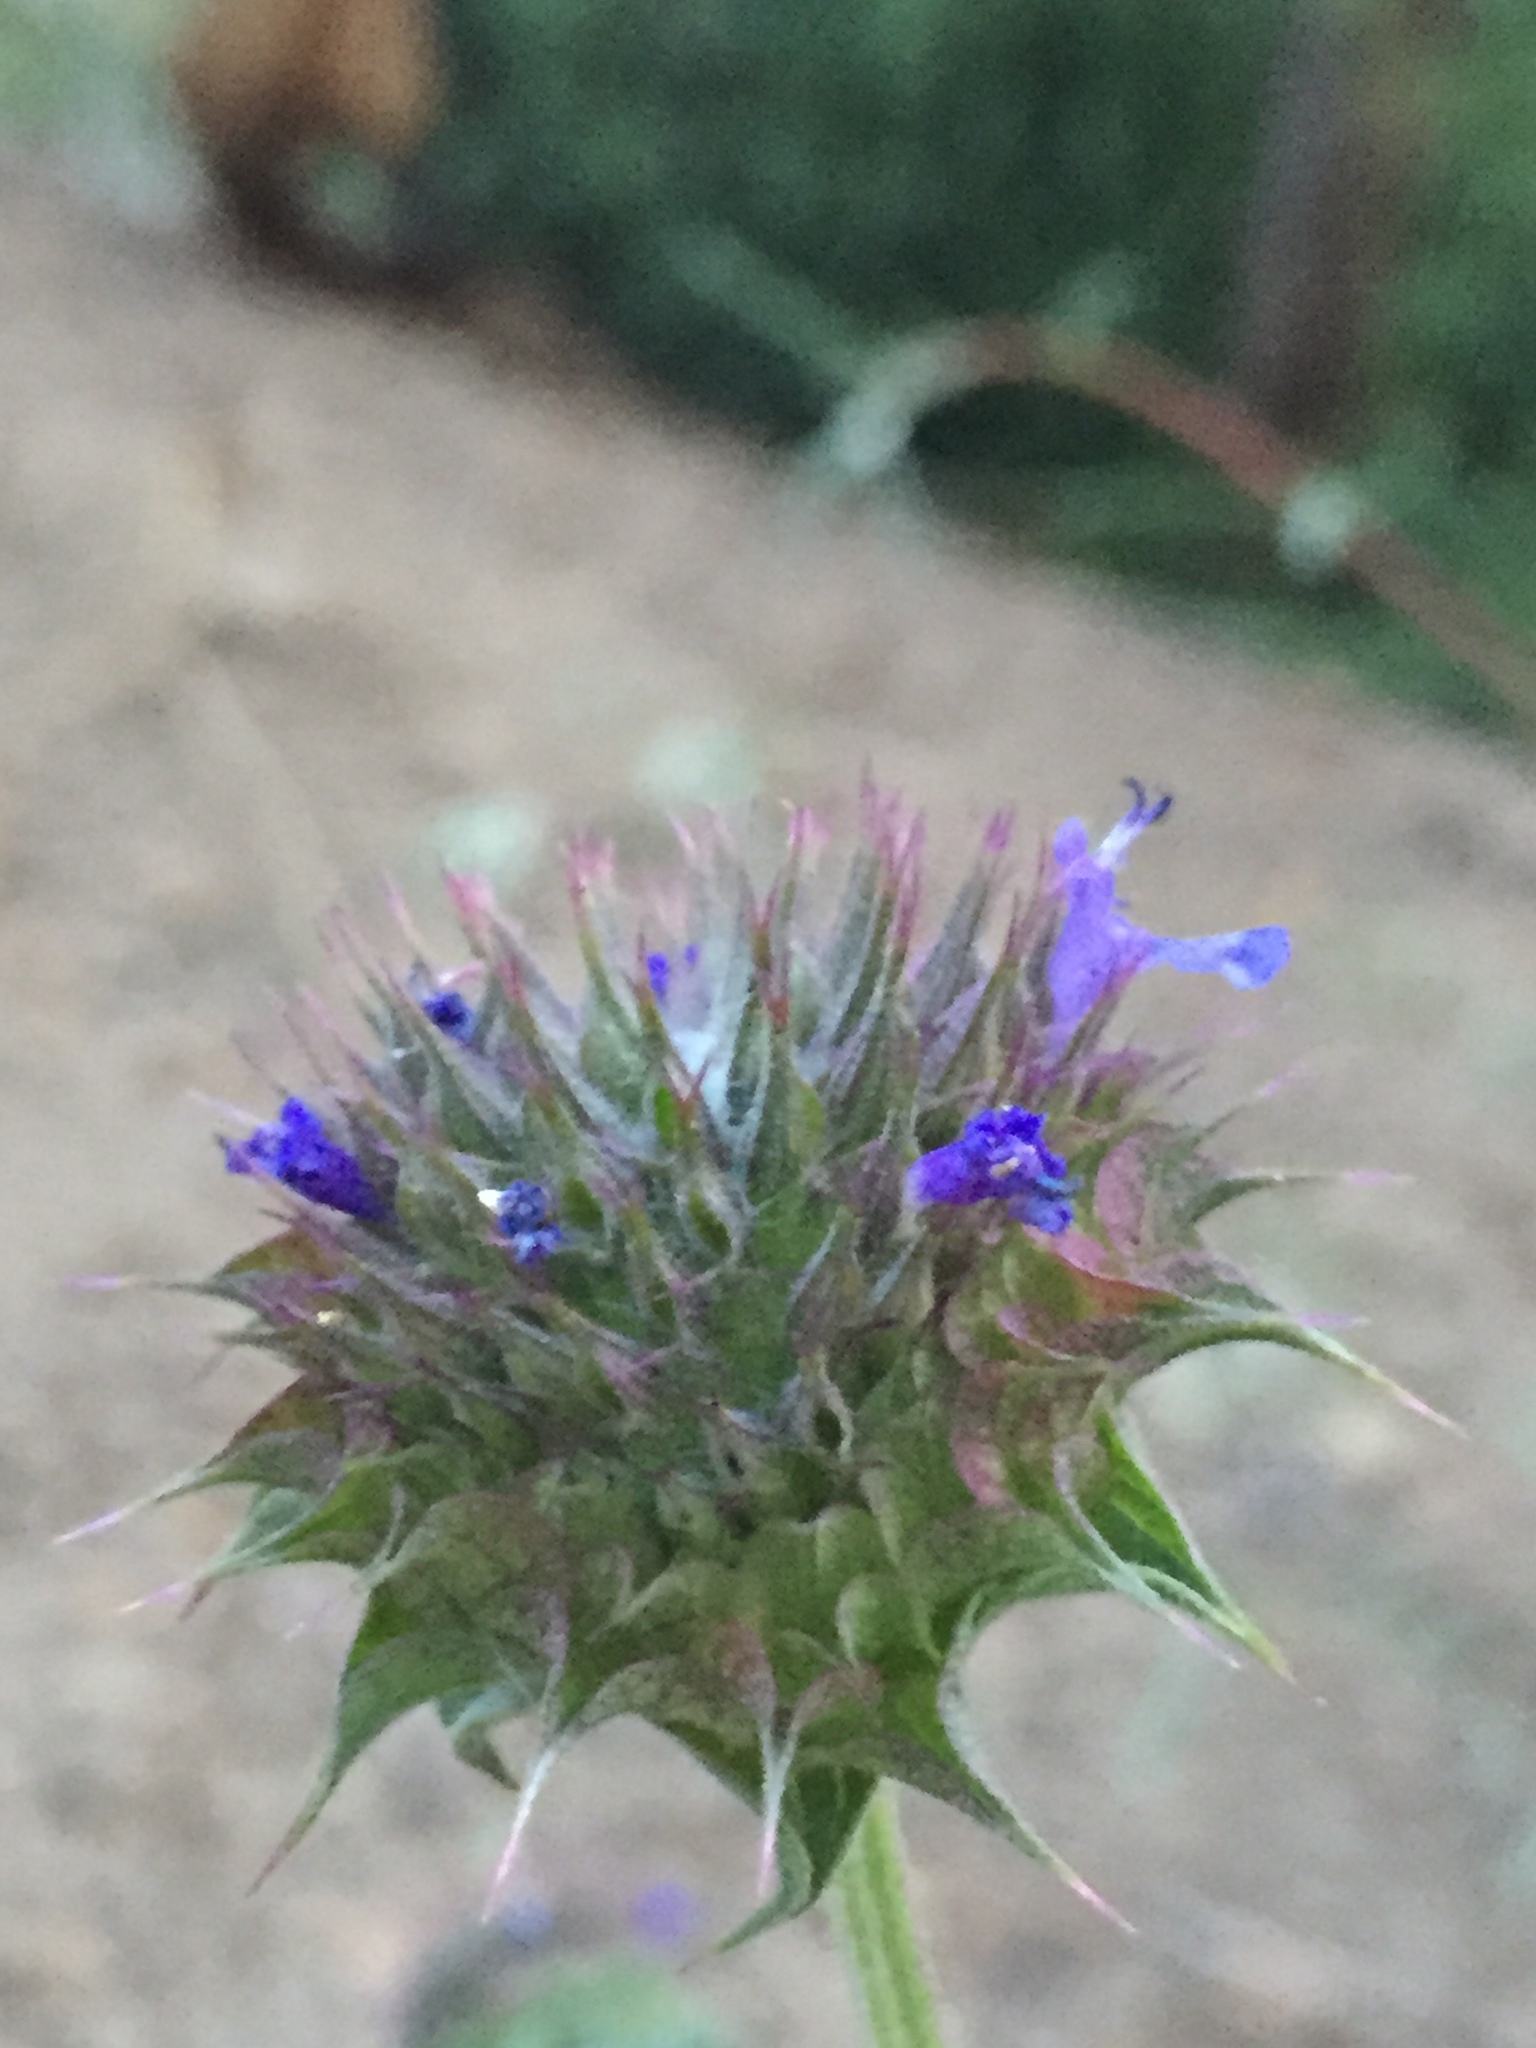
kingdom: Plantae
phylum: Tracheophyta
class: Magnoliopsida
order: Lamiales
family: Lamiaceae
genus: Salvia
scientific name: Salvia columbariae
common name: Chia
